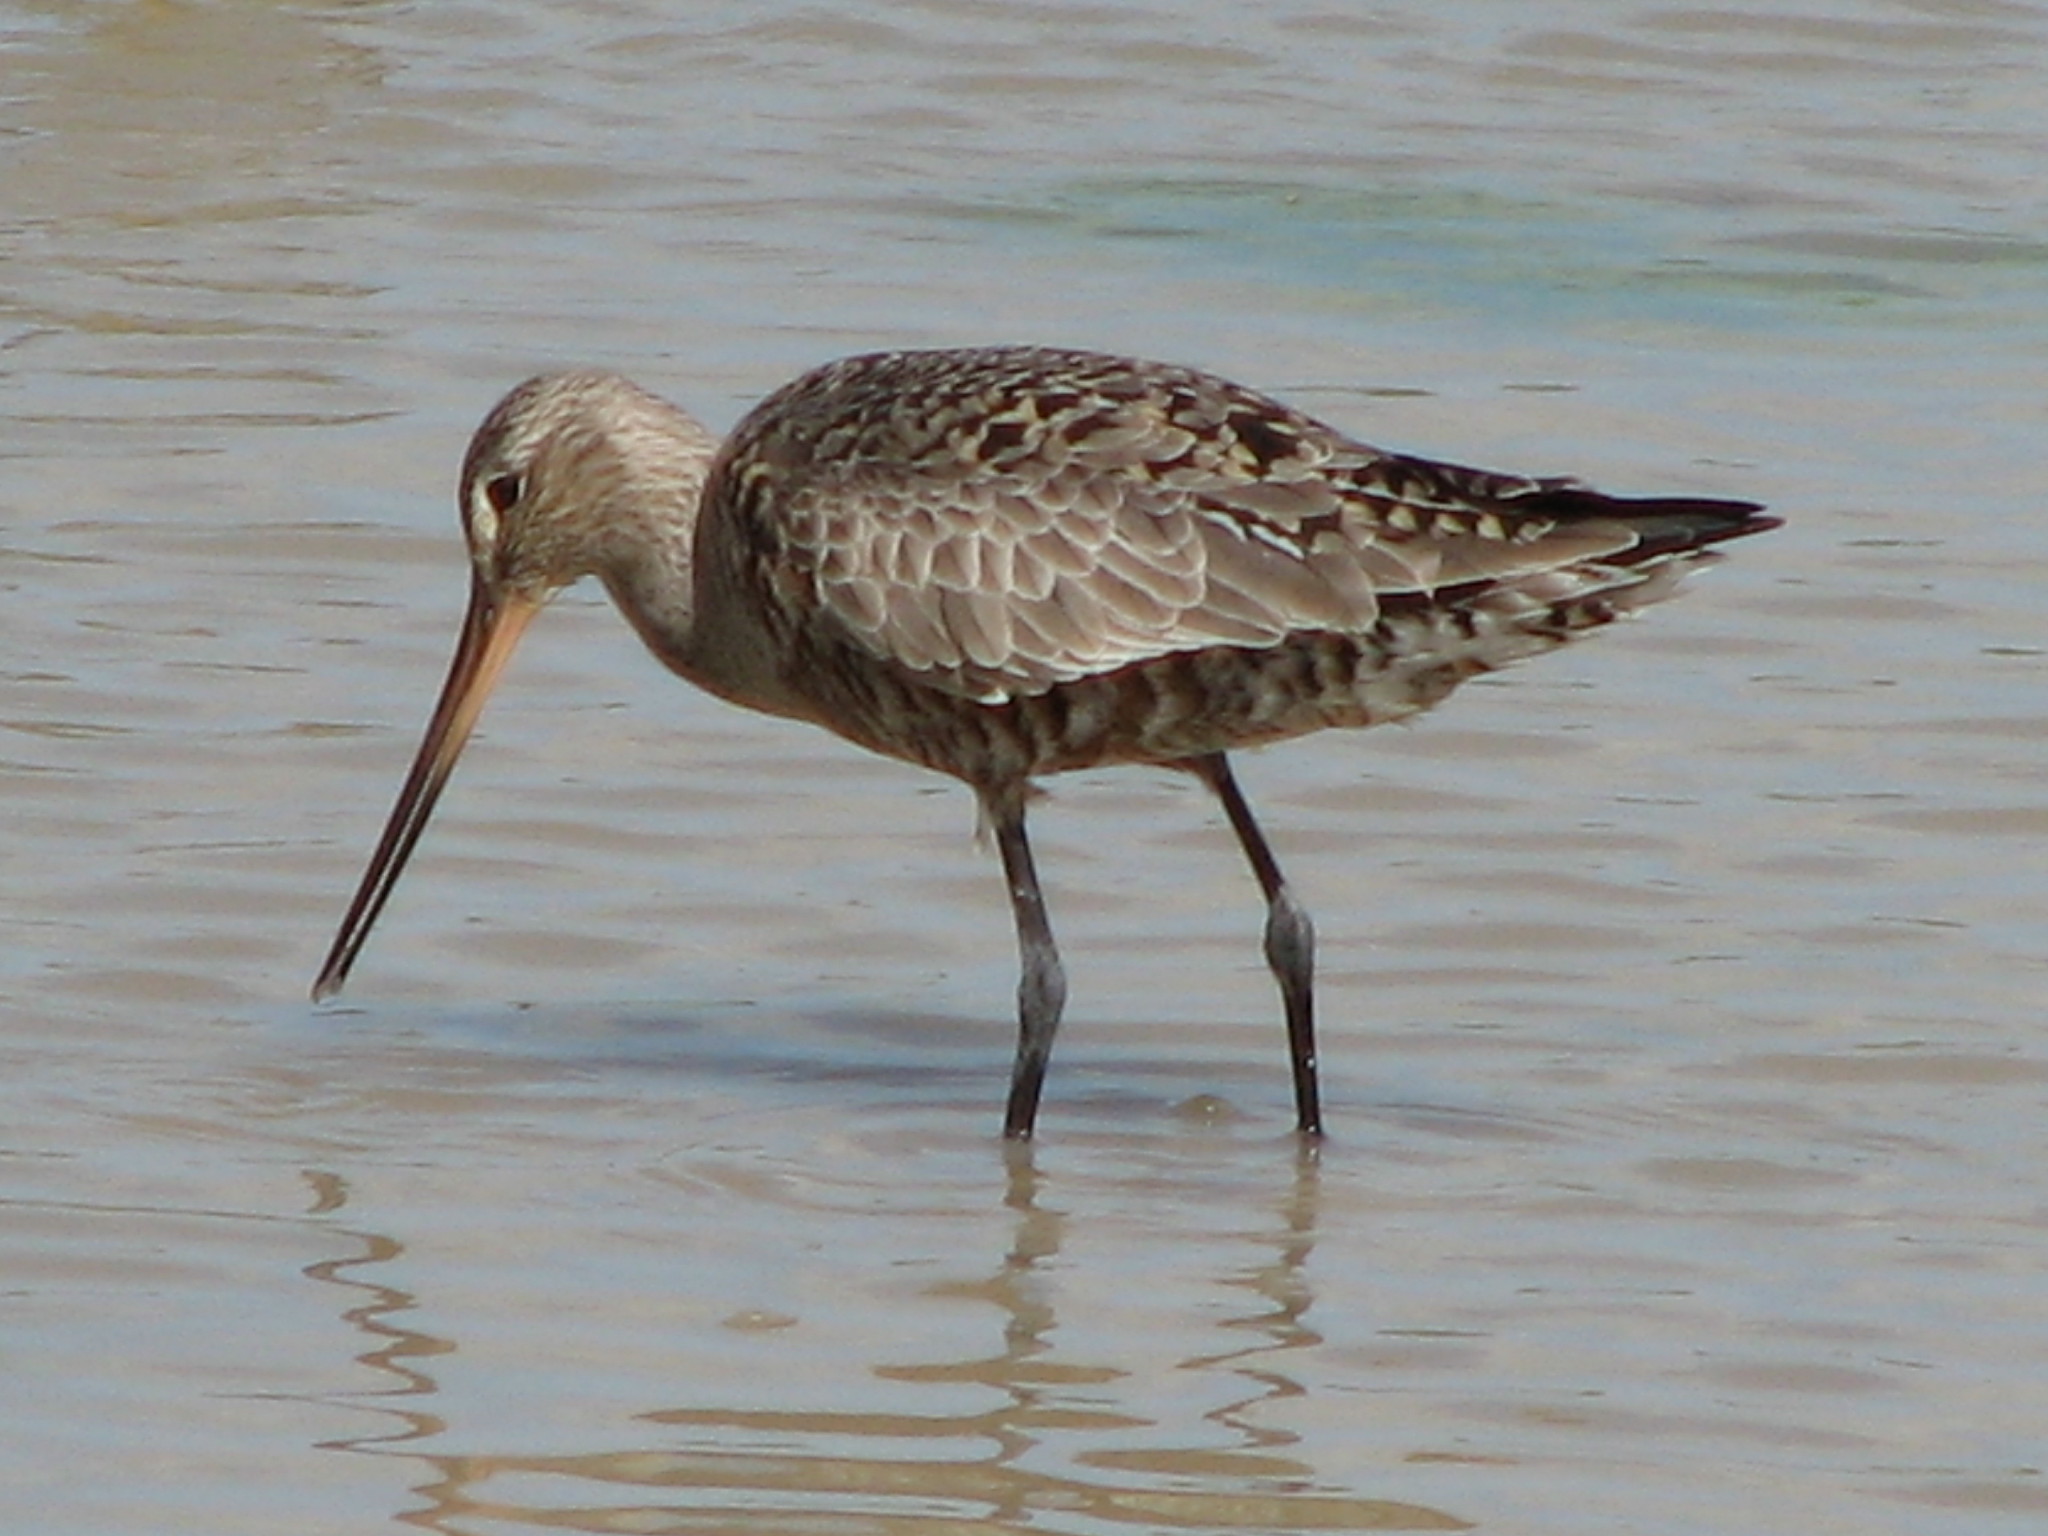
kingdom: Animalia
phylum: Chordata
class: Aves
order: Charadriiformes
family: Scolopacidae
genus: Limosa
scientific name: Limosa haemastica
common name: Hudsonian godwit
